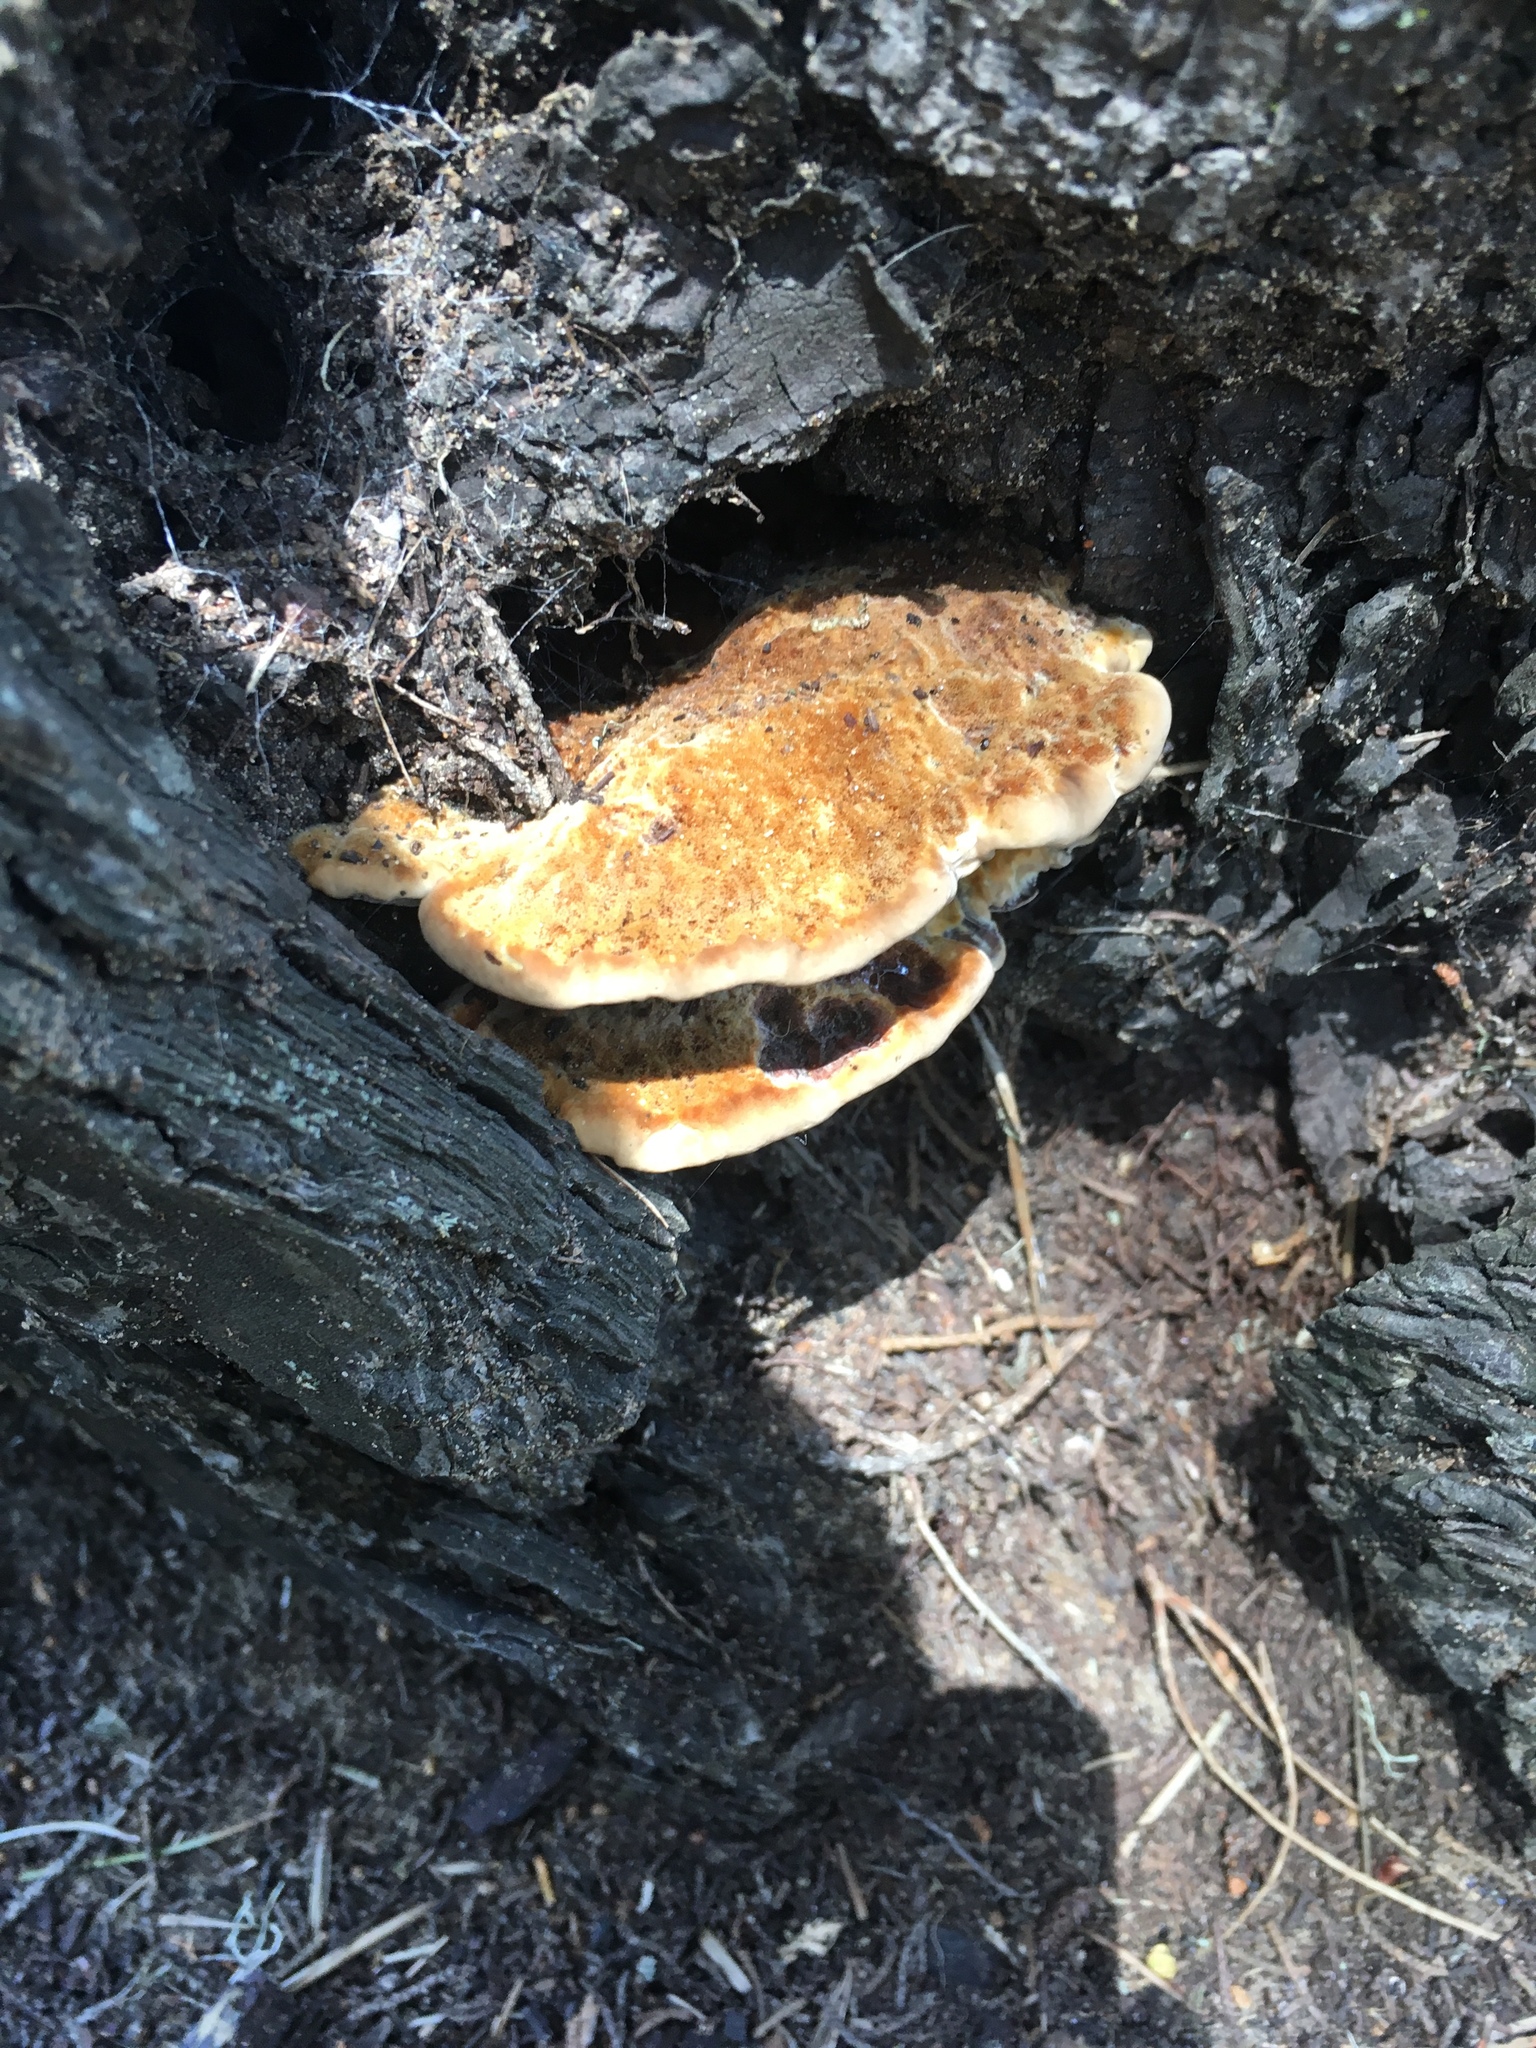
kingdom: Fungi
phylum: Basidiomycota
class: Agaricomycetes
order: Polyporales
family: Laetiporaceae
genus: Phaeolus
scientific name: Phaeolus schweinitzii
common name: Dyer's mazegill
